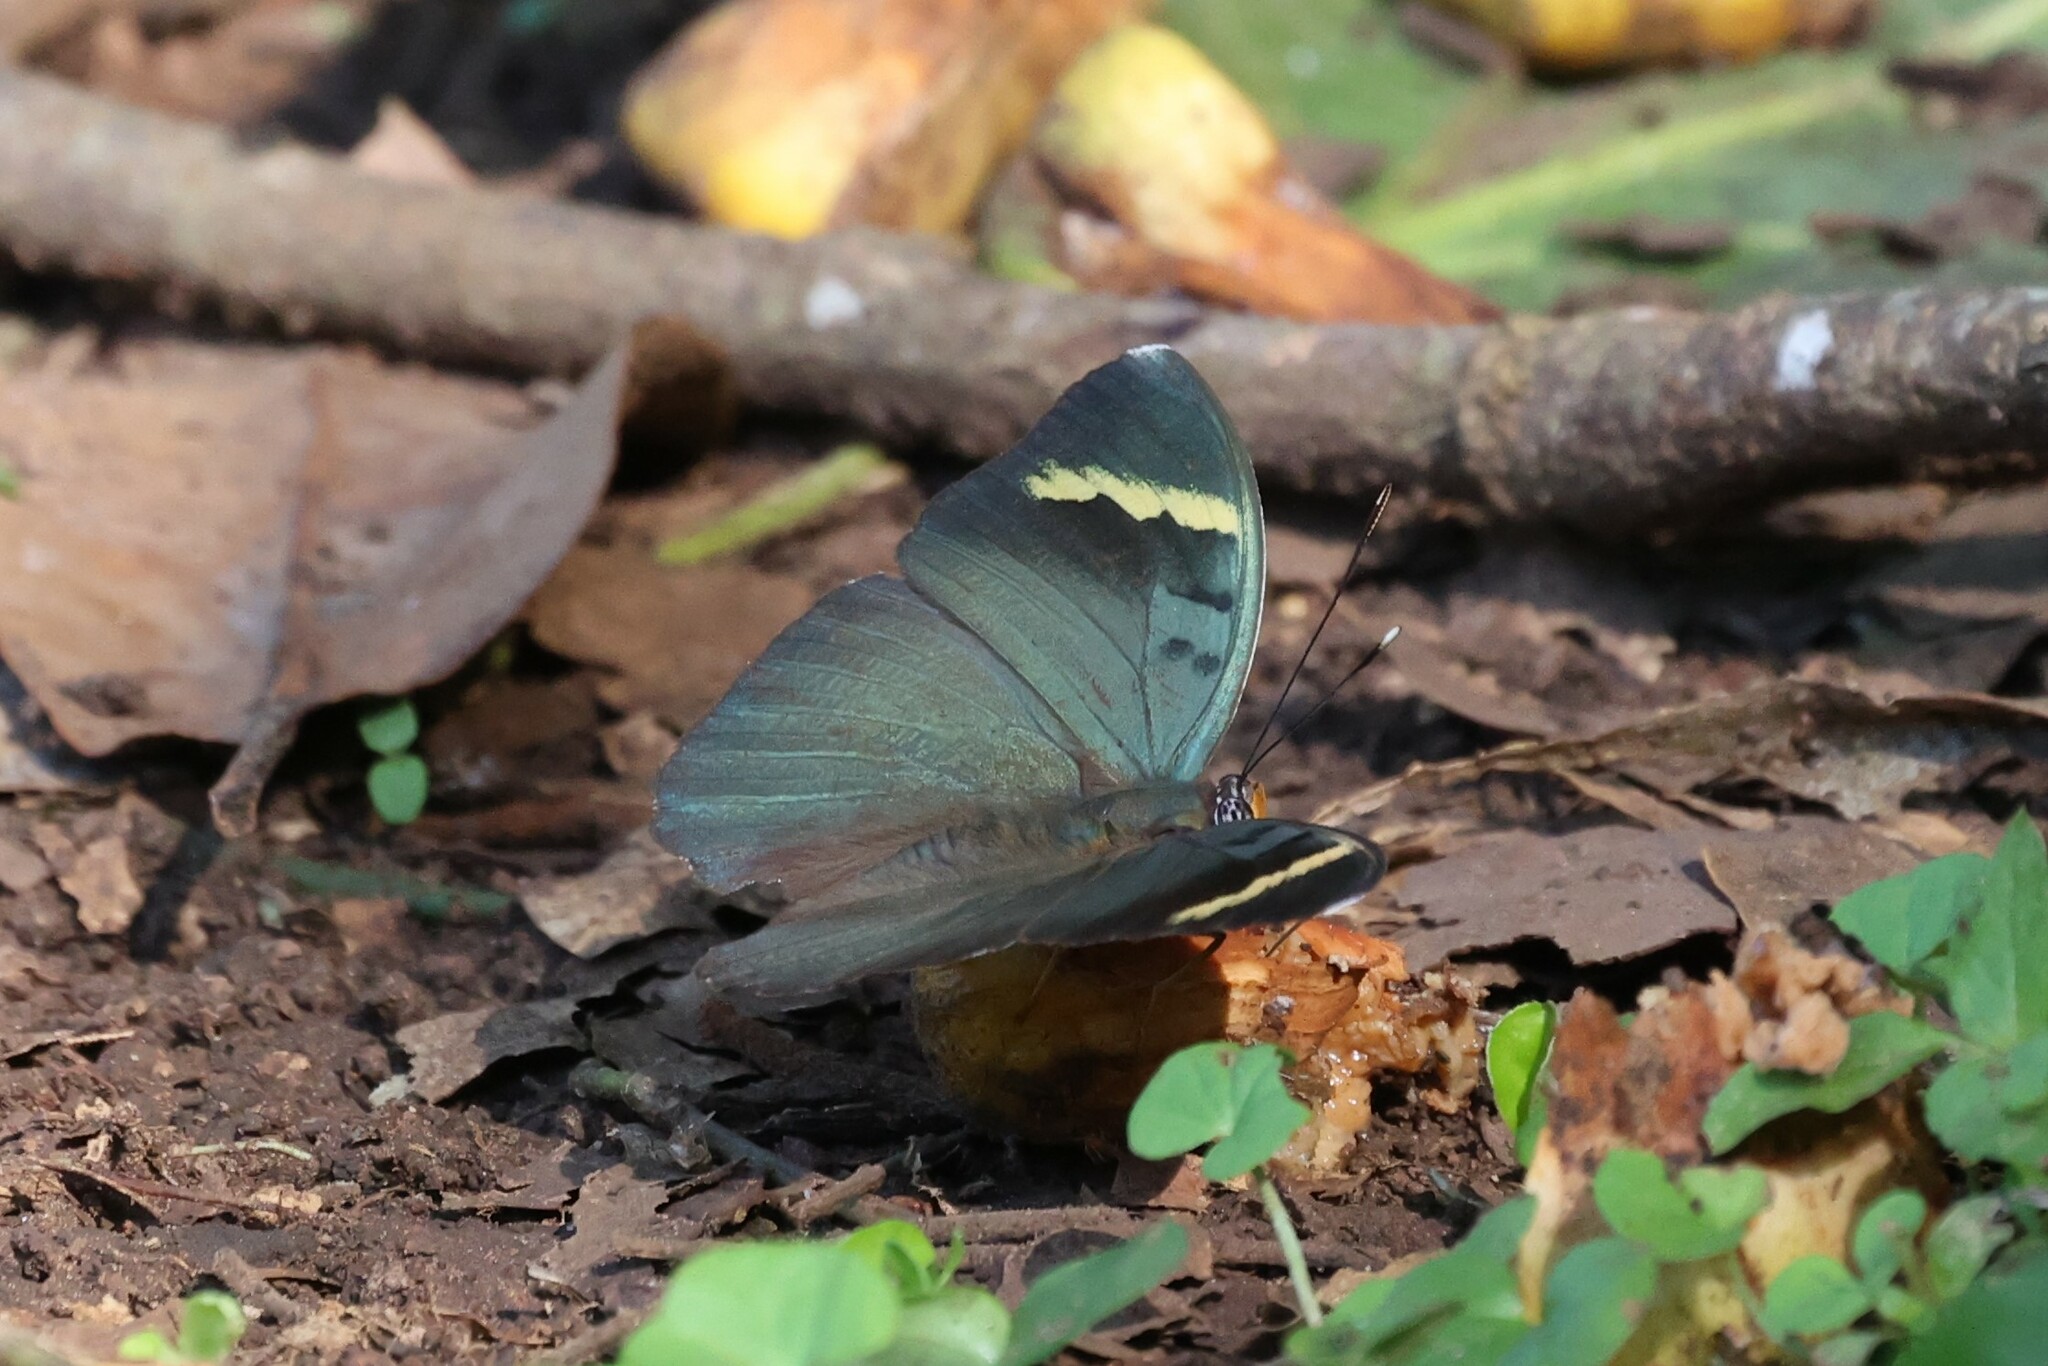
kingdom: Animalia
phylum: Arthropoda
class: Insecta
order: Lepidoptera
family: Nymphalidae
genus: Euphaedra
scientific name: Euphaedra medon
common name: Widespread forester
